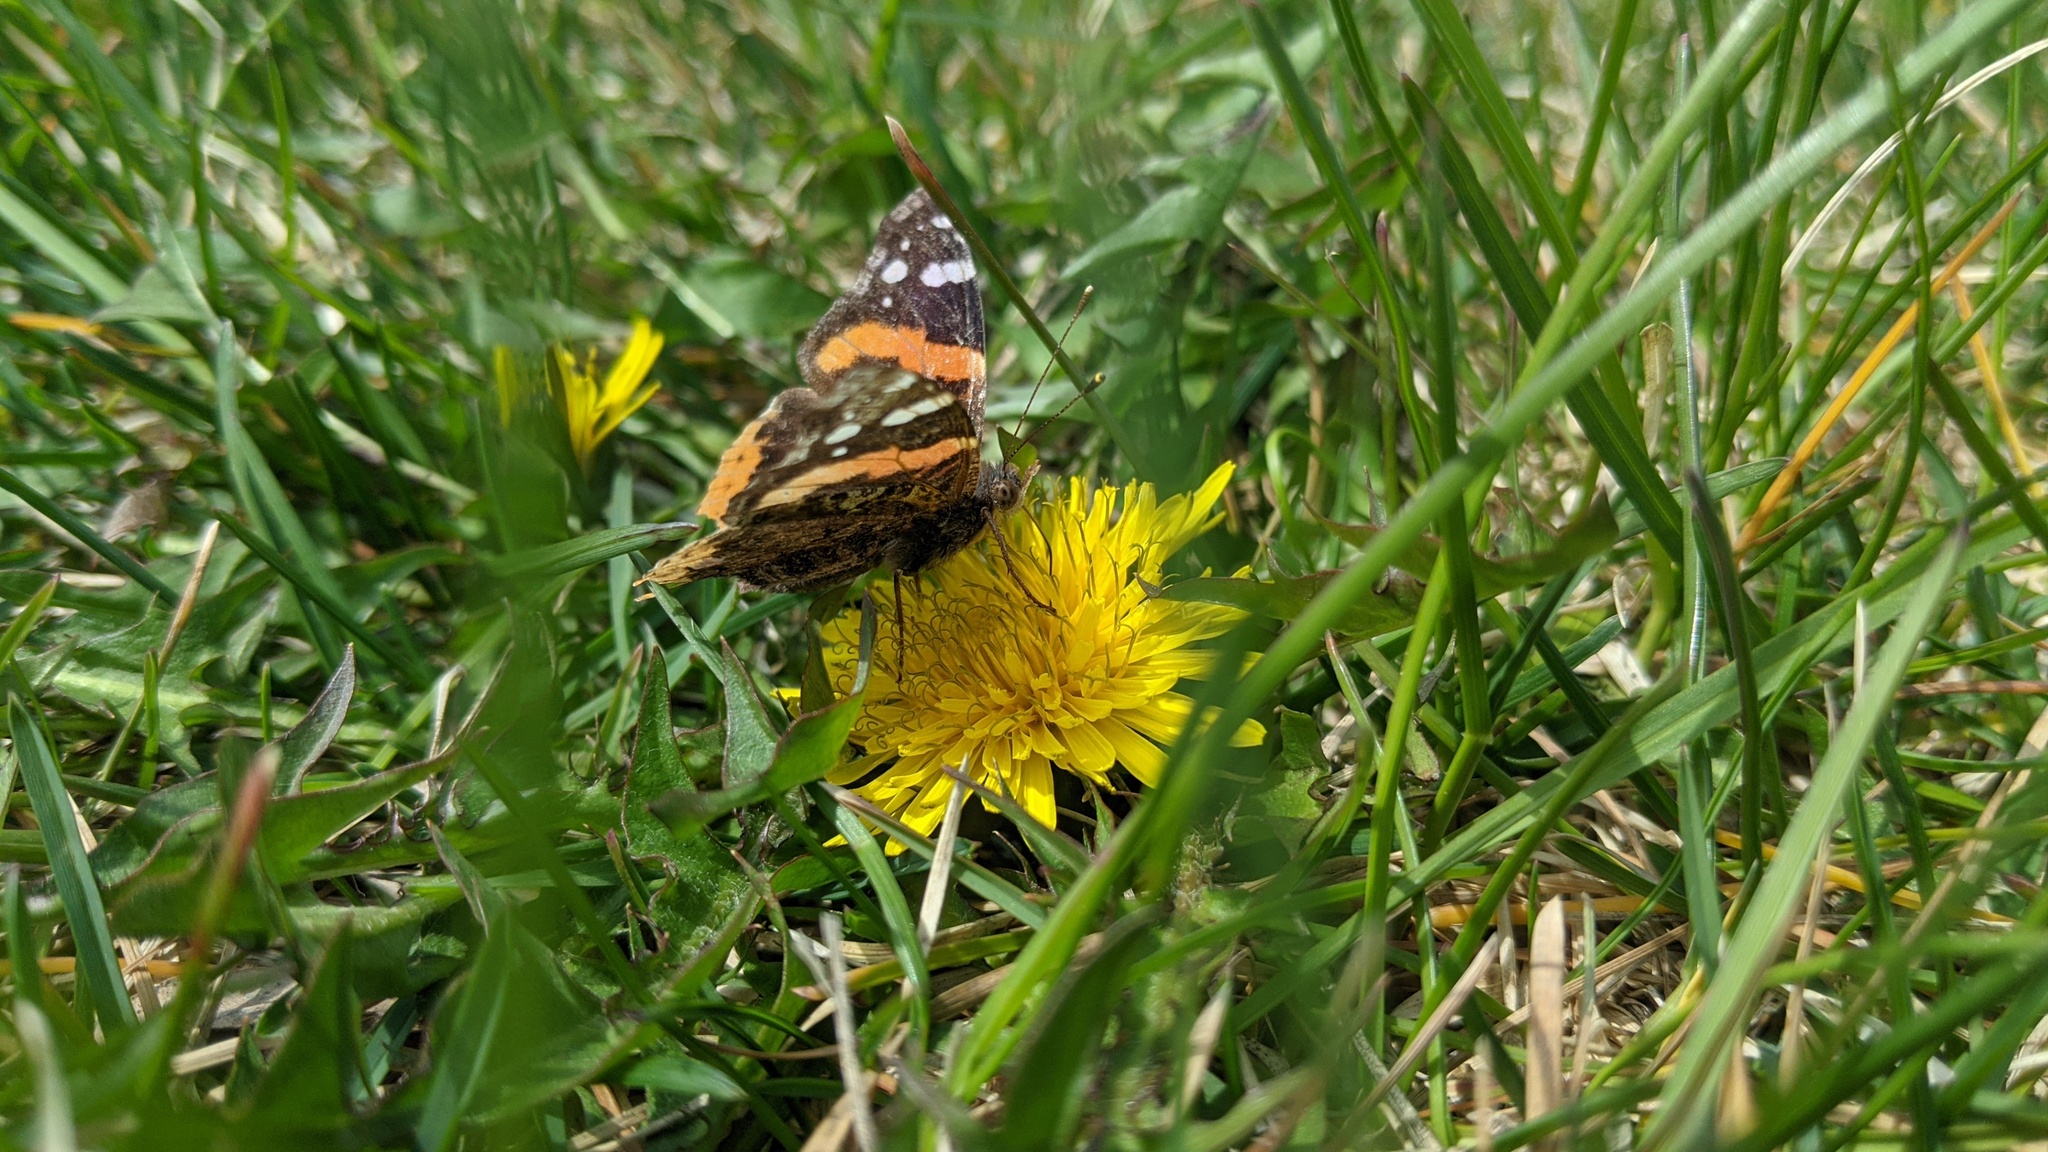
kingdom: Animalia
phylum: Arthropoda
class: Insecta
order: Lepidoptera
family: Nymphalidae
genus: Vanessa
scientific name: Vanessa atalanta
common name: Red admiral
